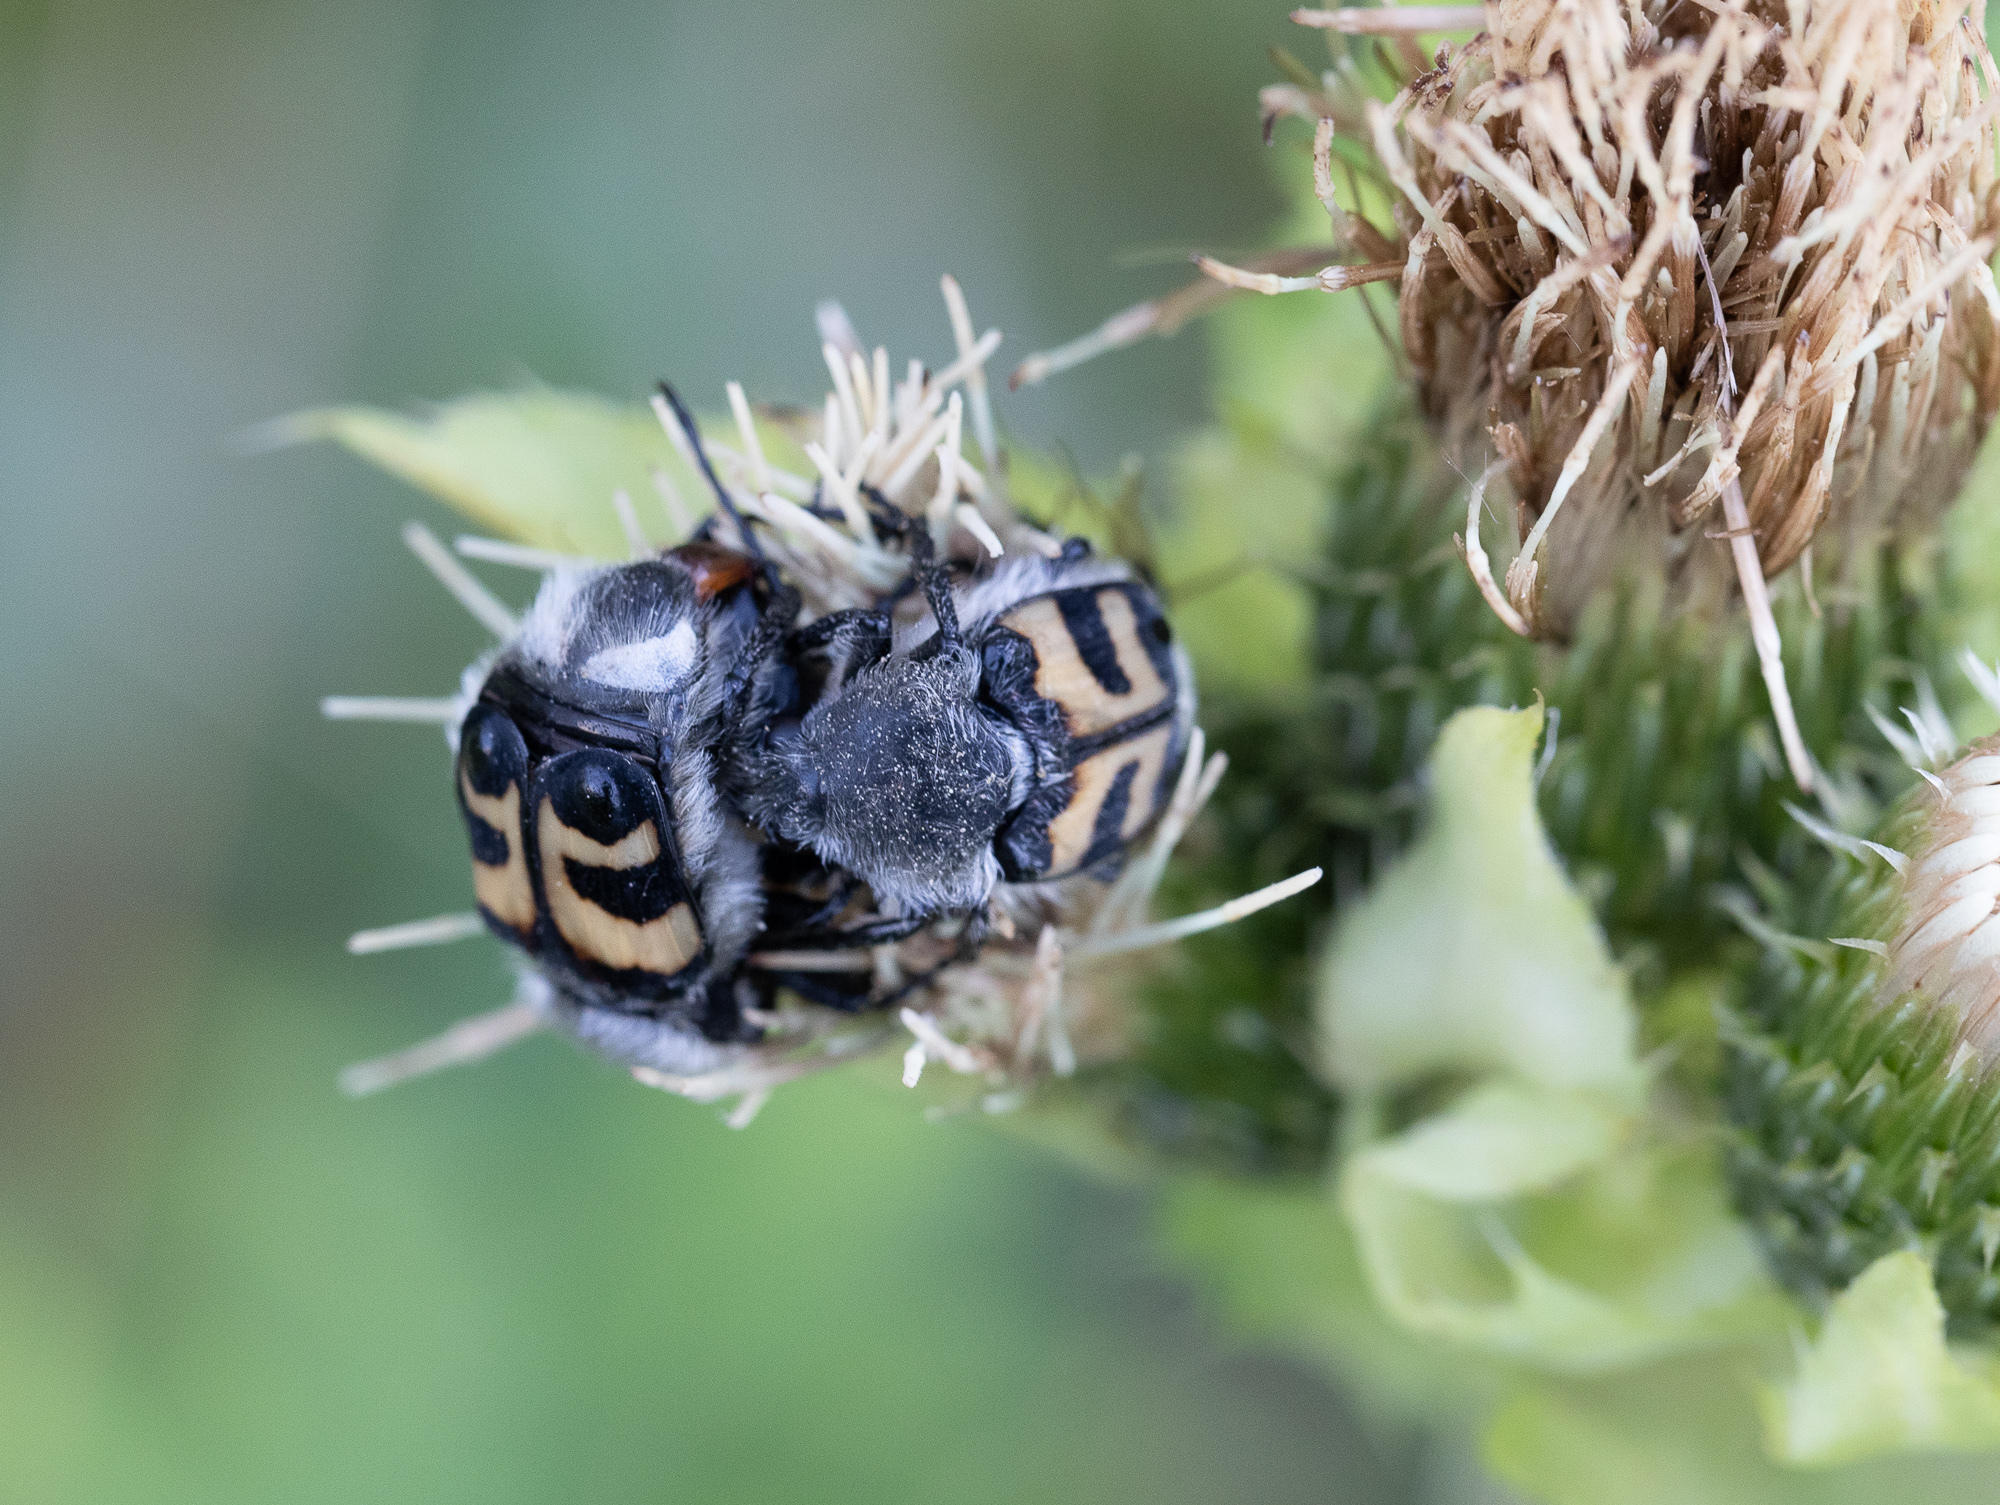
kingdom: Animalia
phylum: Arthropoda
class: Insecta
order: Coleoptera
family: Scarabaeidae
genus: Trichius
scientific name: Trichius fasciatus
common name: Bee beetle
